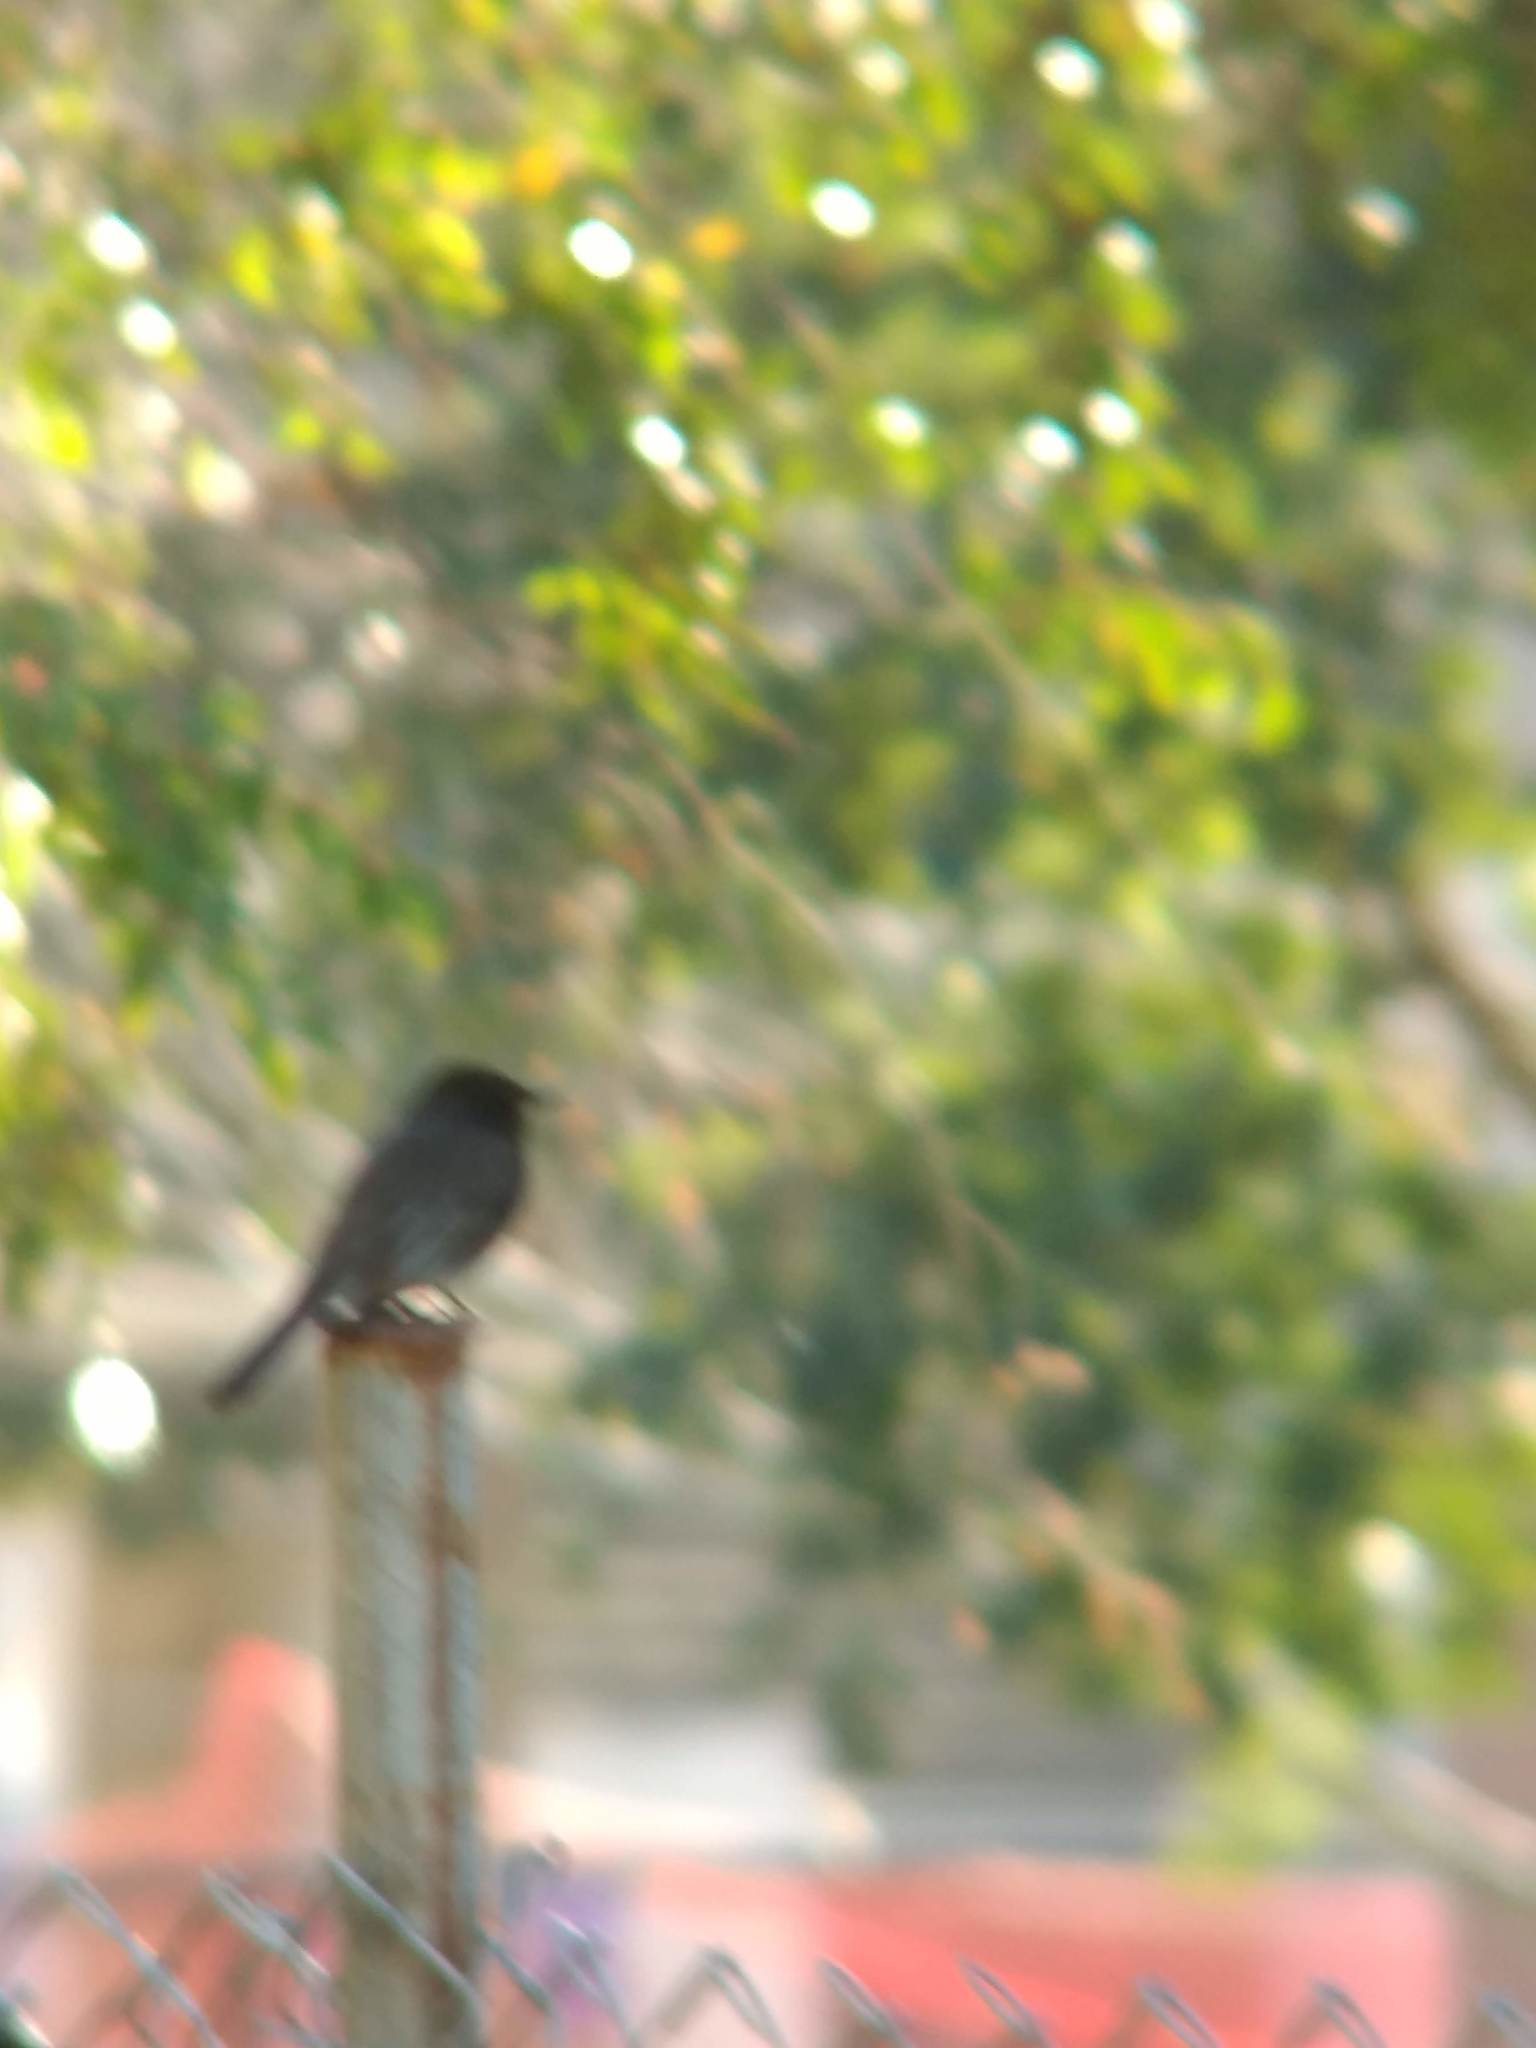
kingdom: Animalia
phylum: Chordata
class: Aves
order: Passeriformes
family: Tyrannidae
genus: Sayornis
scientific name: Sayornis nigricans
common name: Black phoebe
